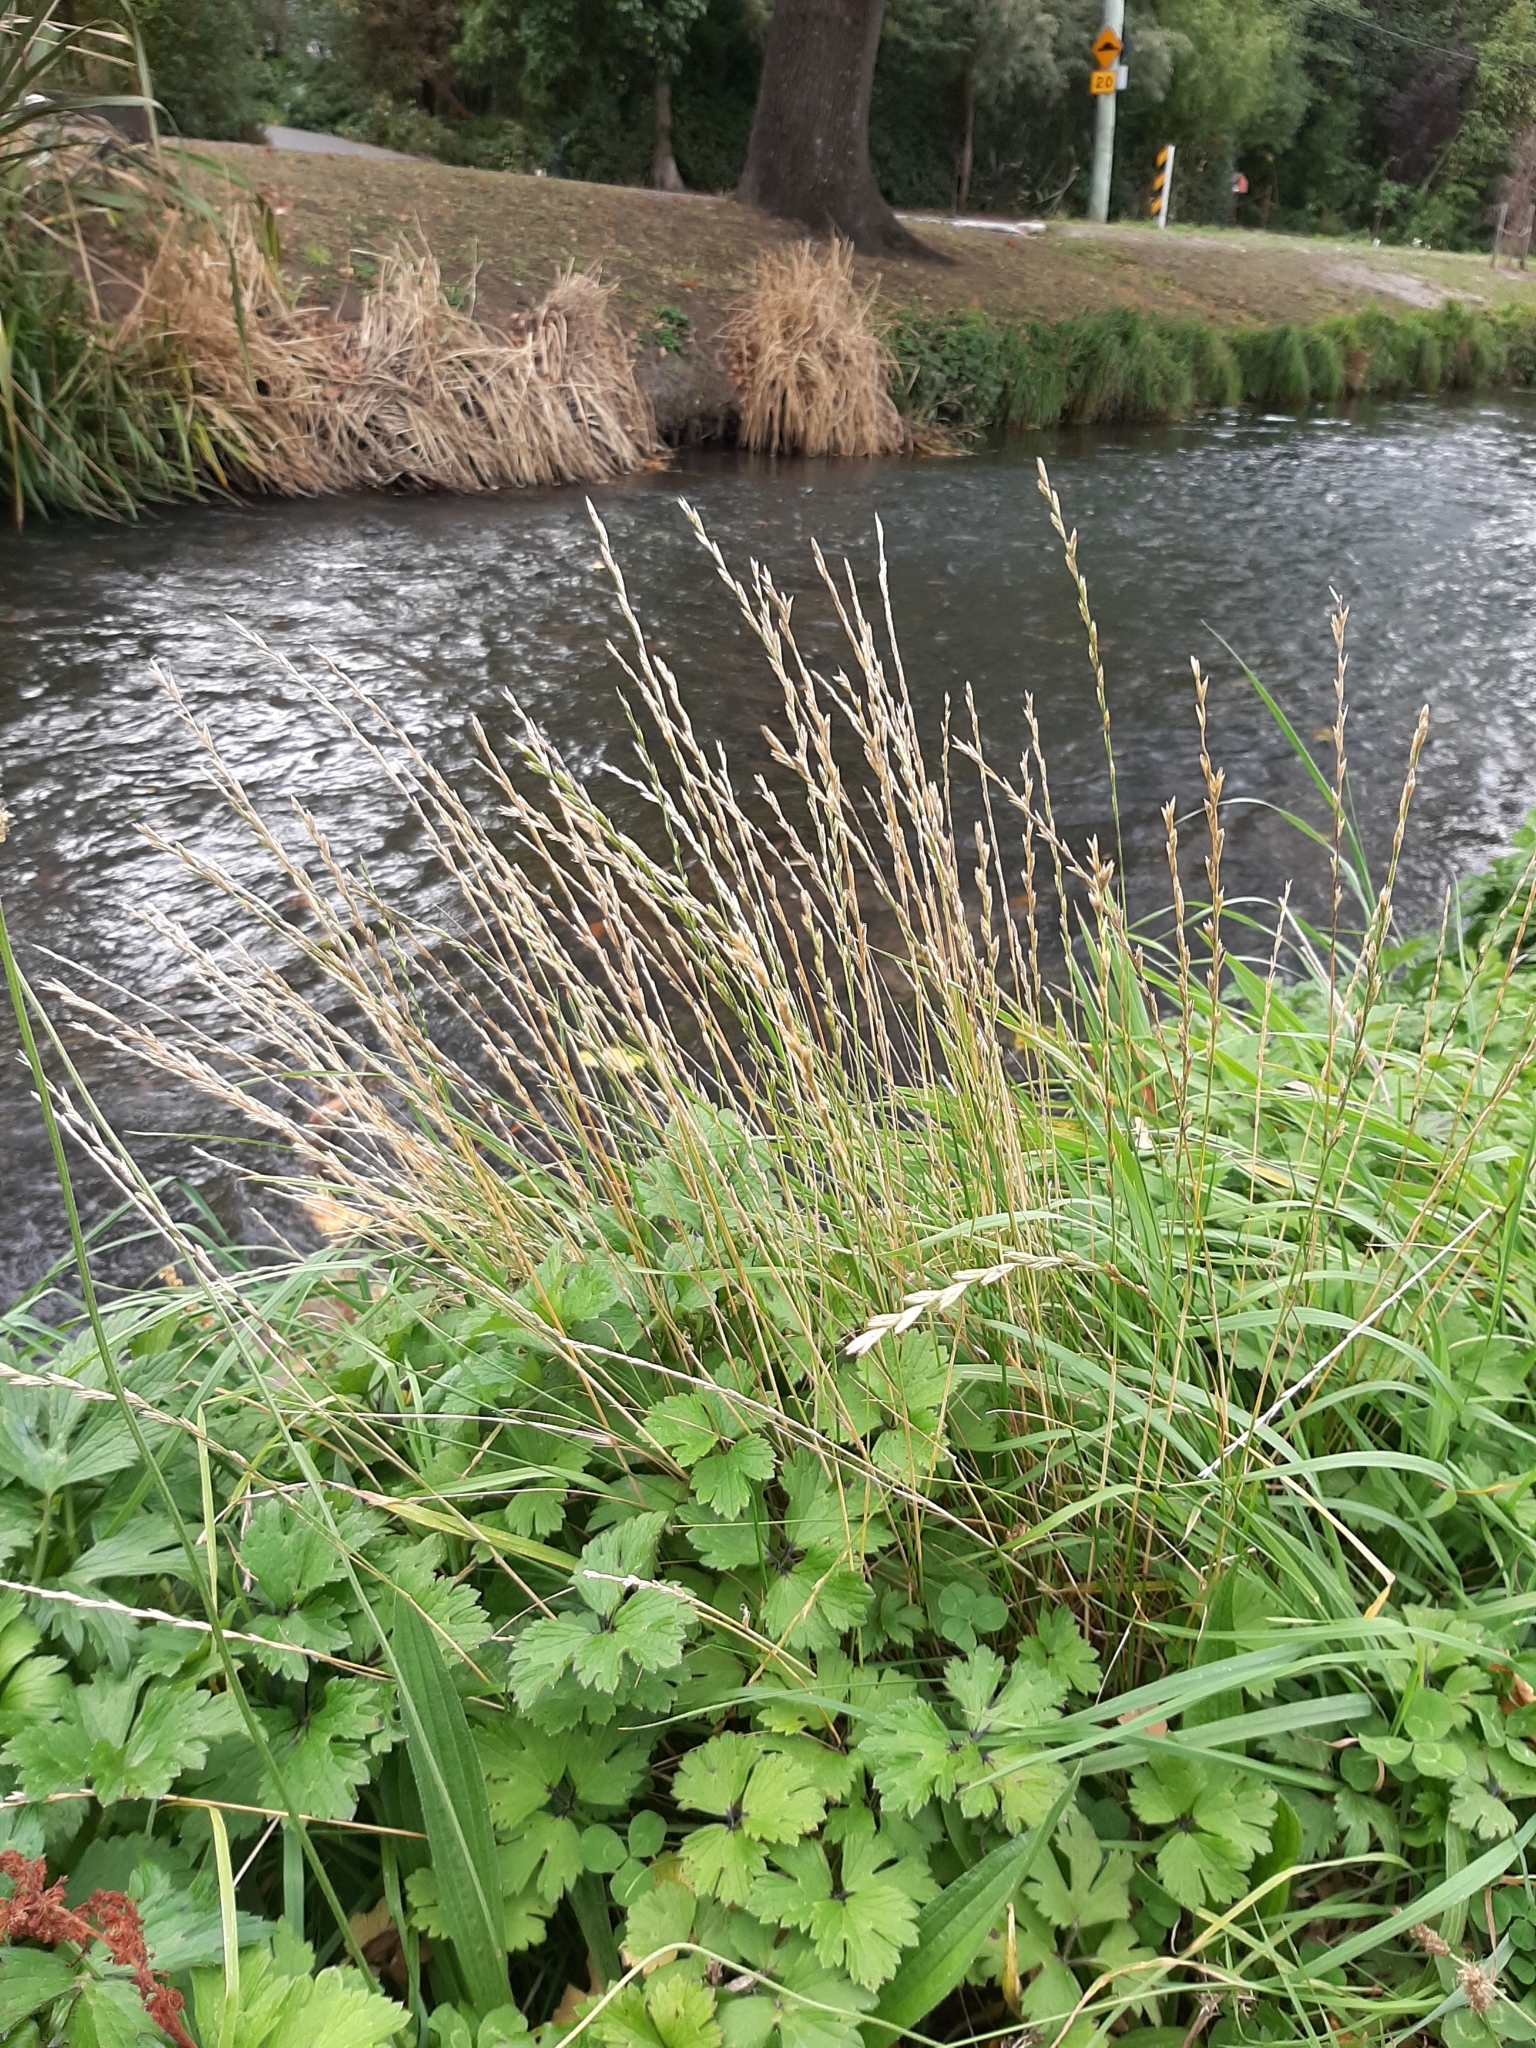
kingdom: Plantae
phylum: Tracheophyta
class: Liliopsida
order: Poales
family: Poaceae
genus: Lolium
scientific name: Lolium perenne
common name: Perennial ryegrass
